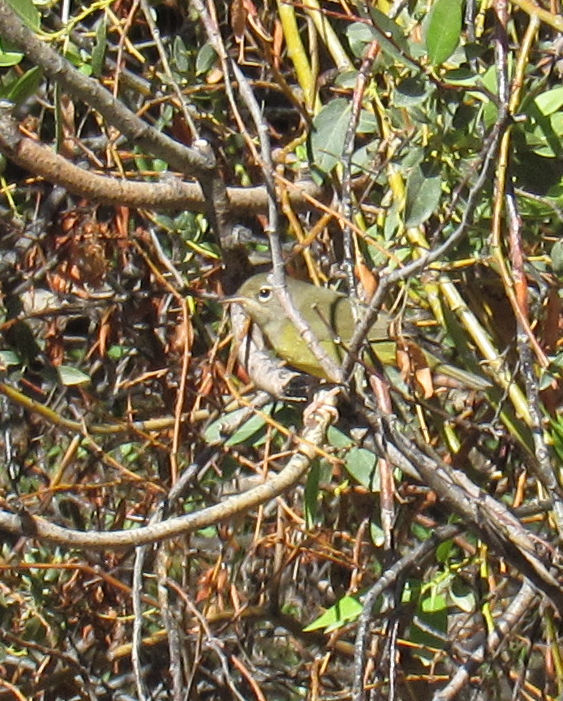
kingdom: Animalia
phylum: Chordata
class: Aves
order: Passeriformes
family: Parulidae
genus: Geothlypis
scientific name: Geothlypis tolmiei
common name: Macgillivray's warbler
